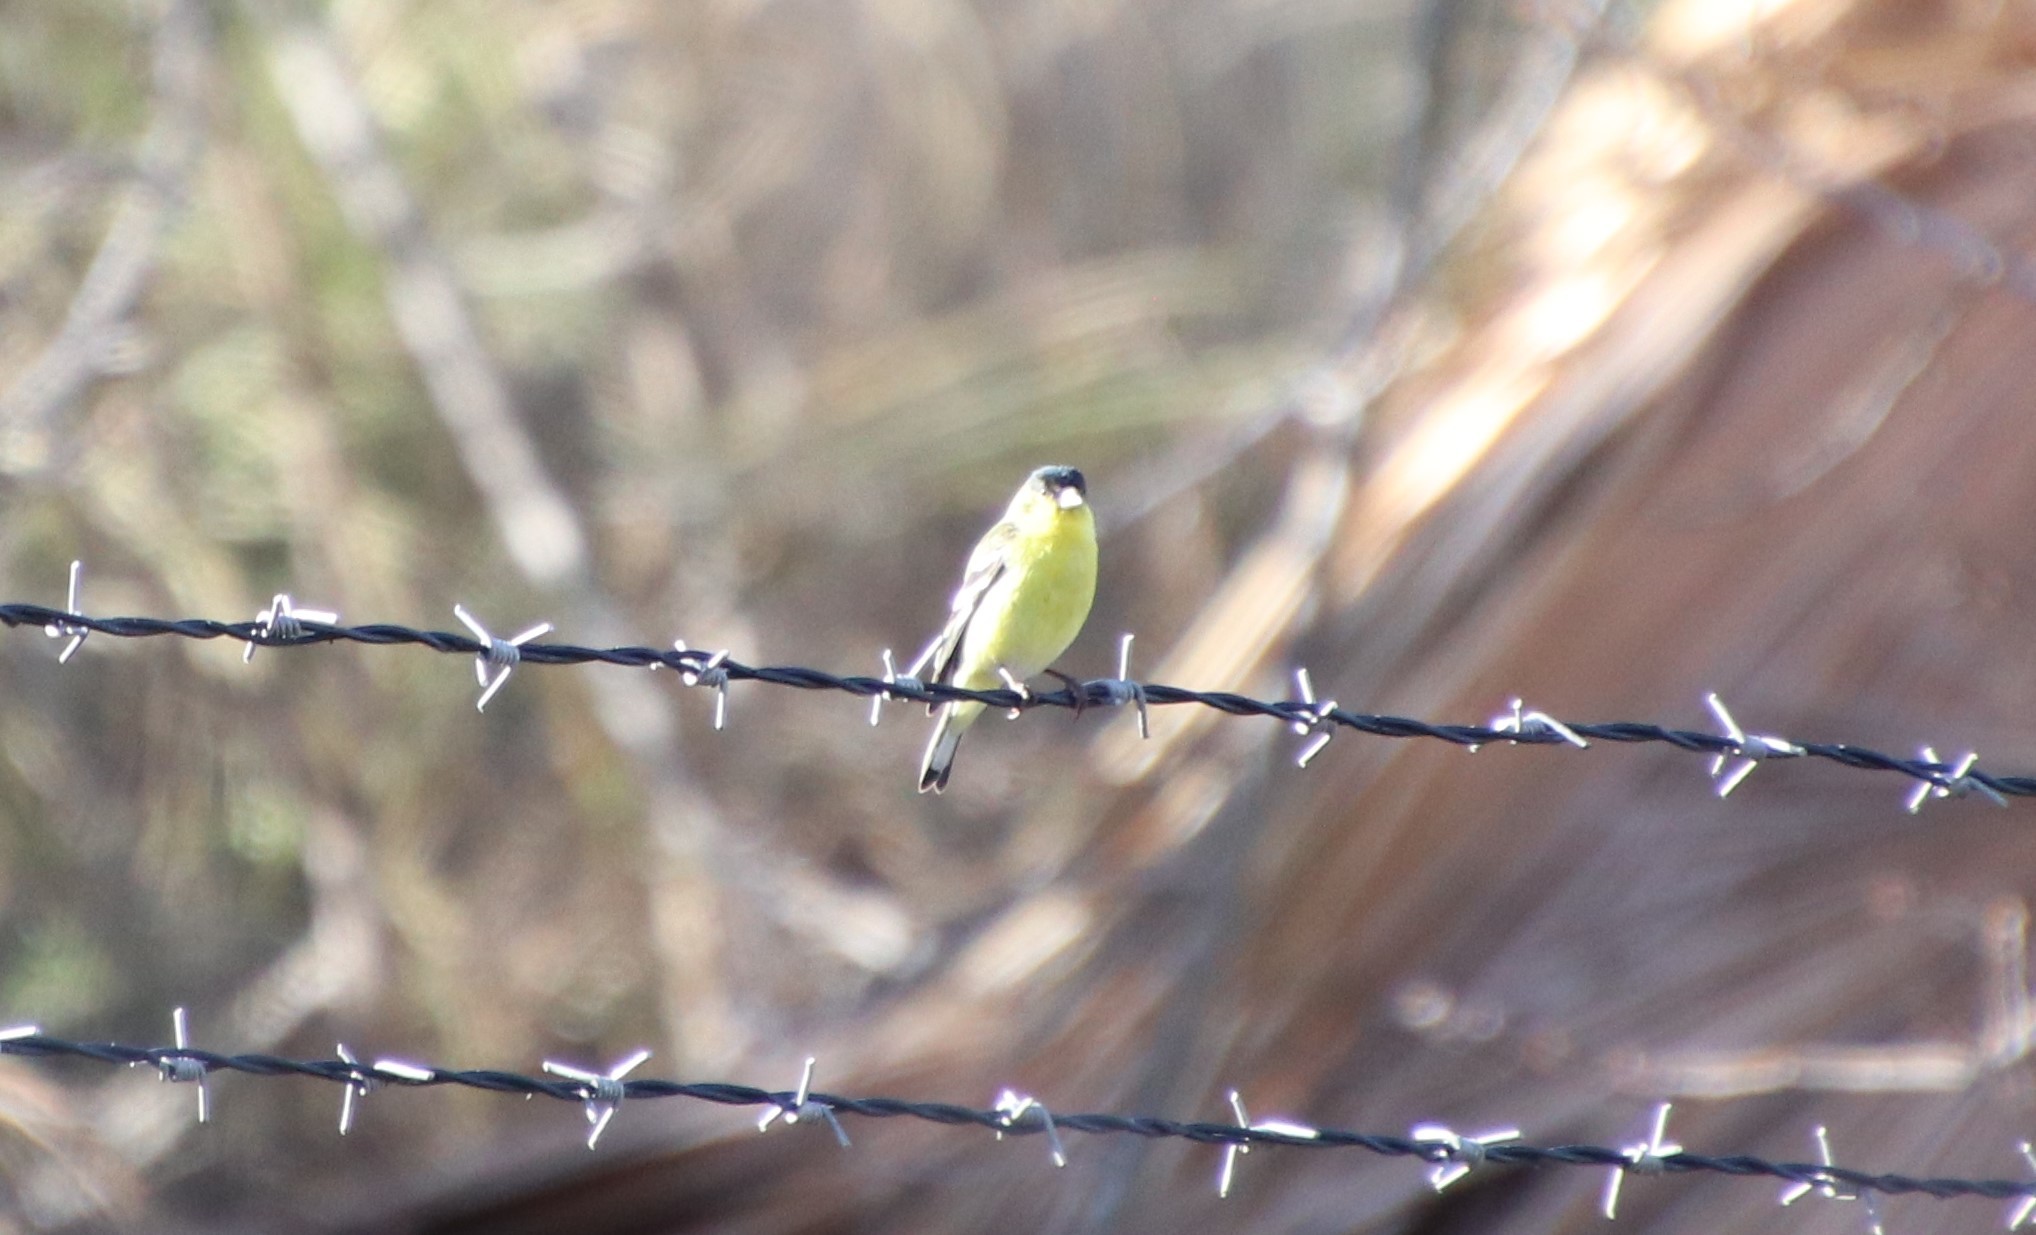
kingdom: Animalia
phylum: Chordata
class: Aves
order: Passeriformes
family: Fringillidae
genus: Spinus
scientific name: Spinus psaltria
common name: Lesser goldfinch
